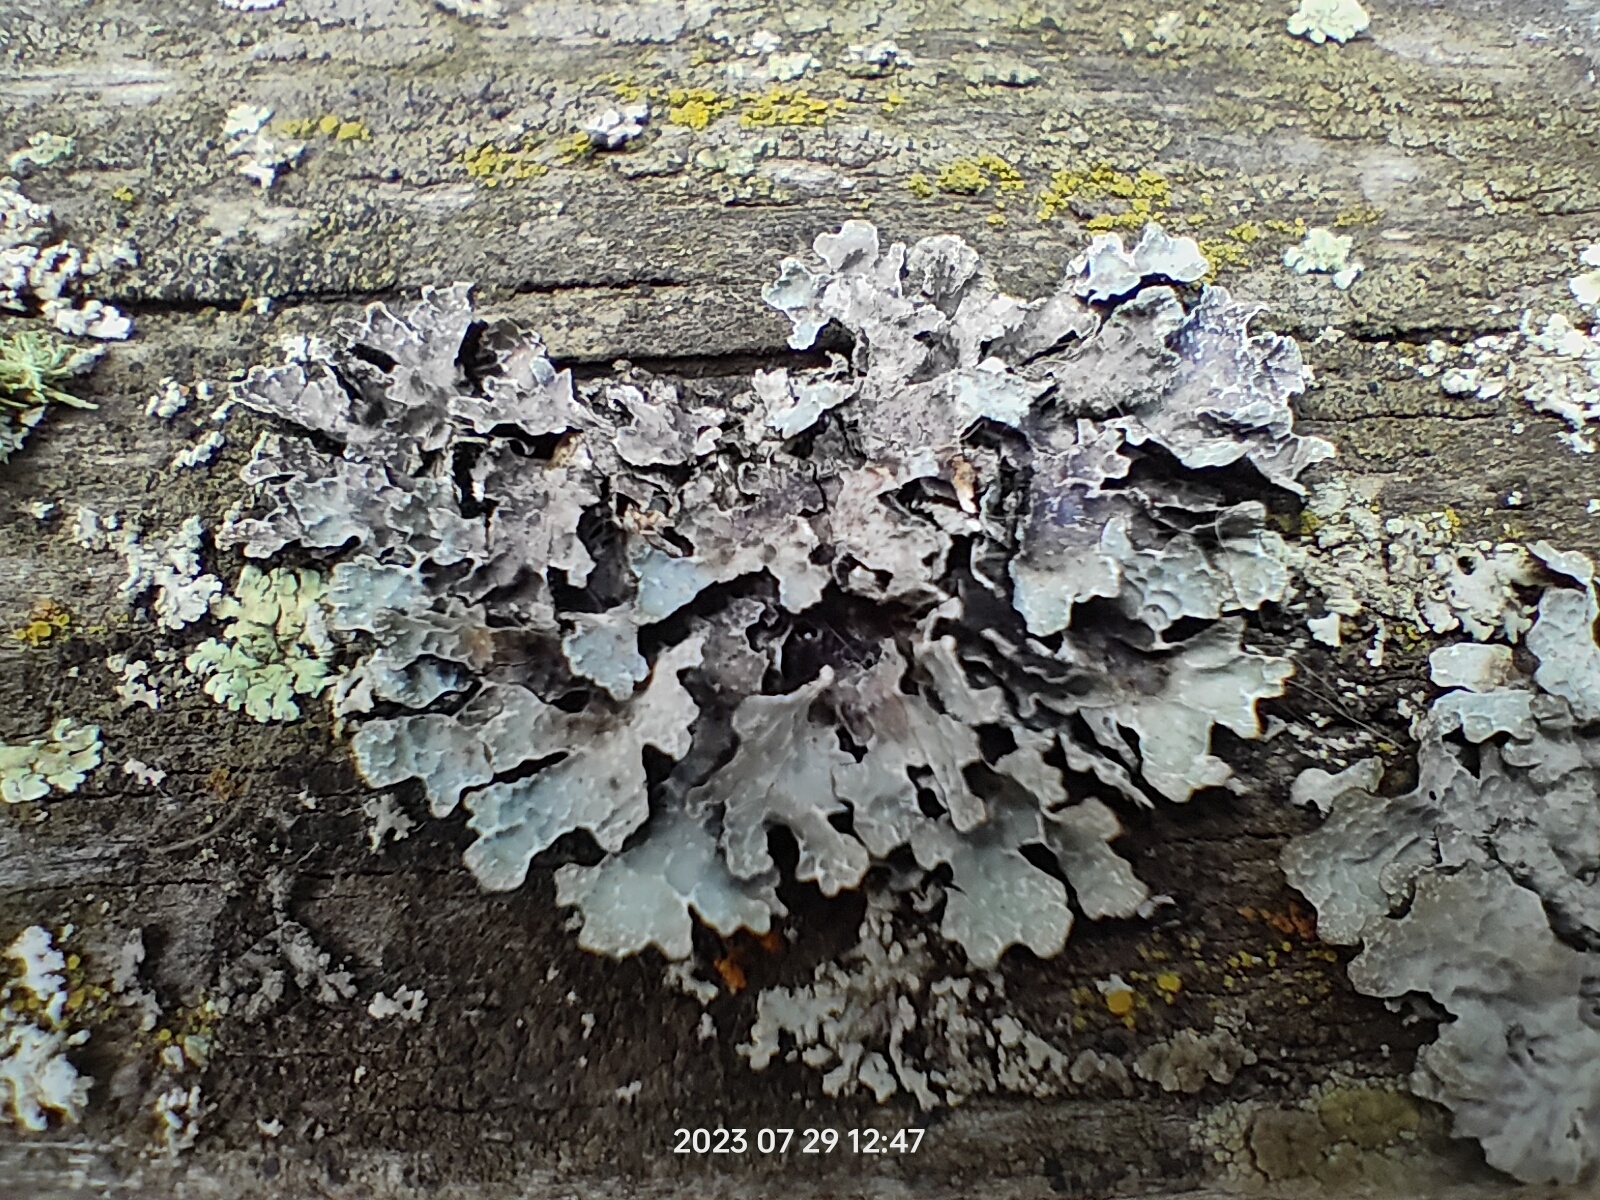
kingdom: Fungi
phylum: Ascomycota
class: Lecanoromycetes
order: Lecanorales
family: Parmeliaceae
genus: Parmelia
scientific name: Parmelia sulcata
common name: Netted shield lichen
